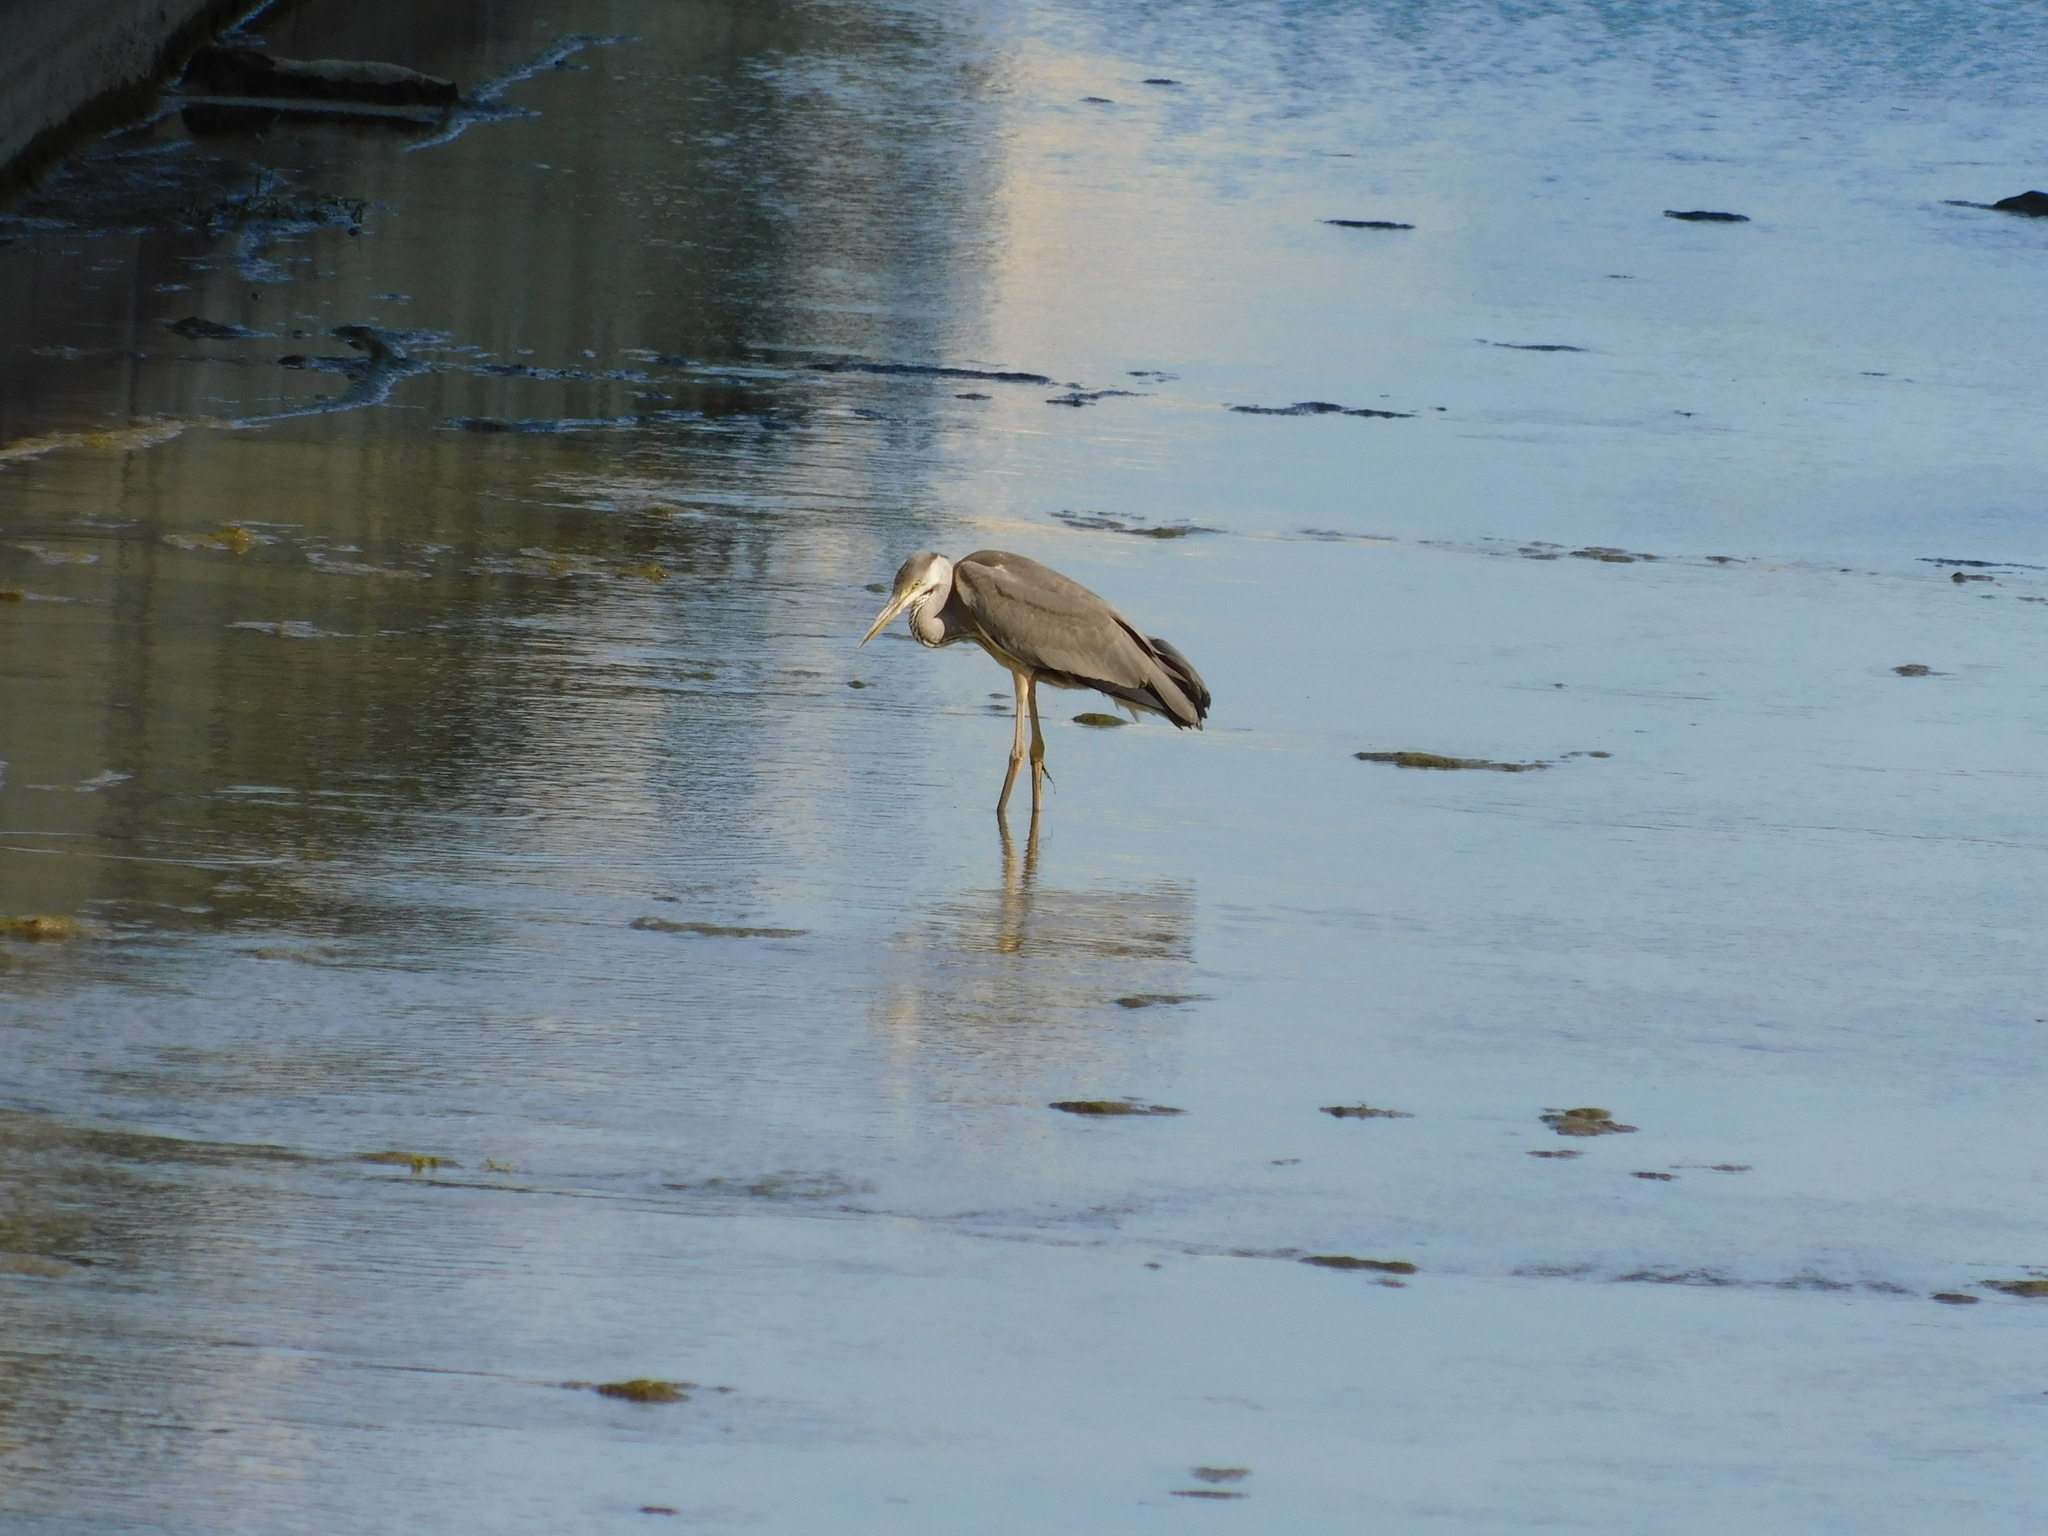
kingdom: Animalia
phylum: Chordata
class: Aves
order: Pelecaniformes
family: Ardeidae
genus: Ardea
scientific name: Ardea cinerea
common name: Grey heron
